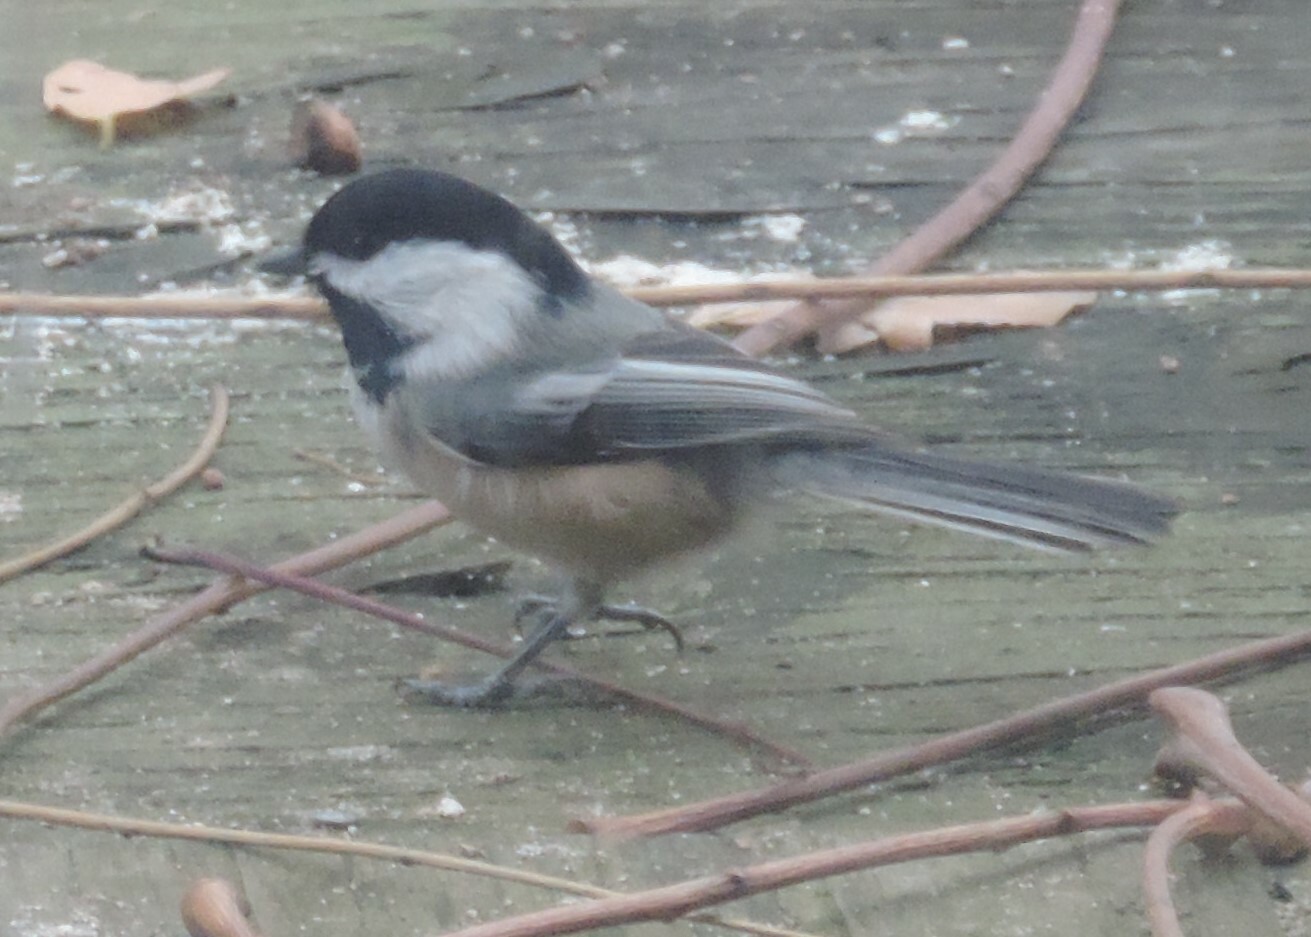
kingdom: Animalia
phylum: Chordata
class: Aves
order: Passeriformes
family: Paridae
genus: Poecile
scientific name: Poecile atricapillus
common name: Black-capped chickadee
